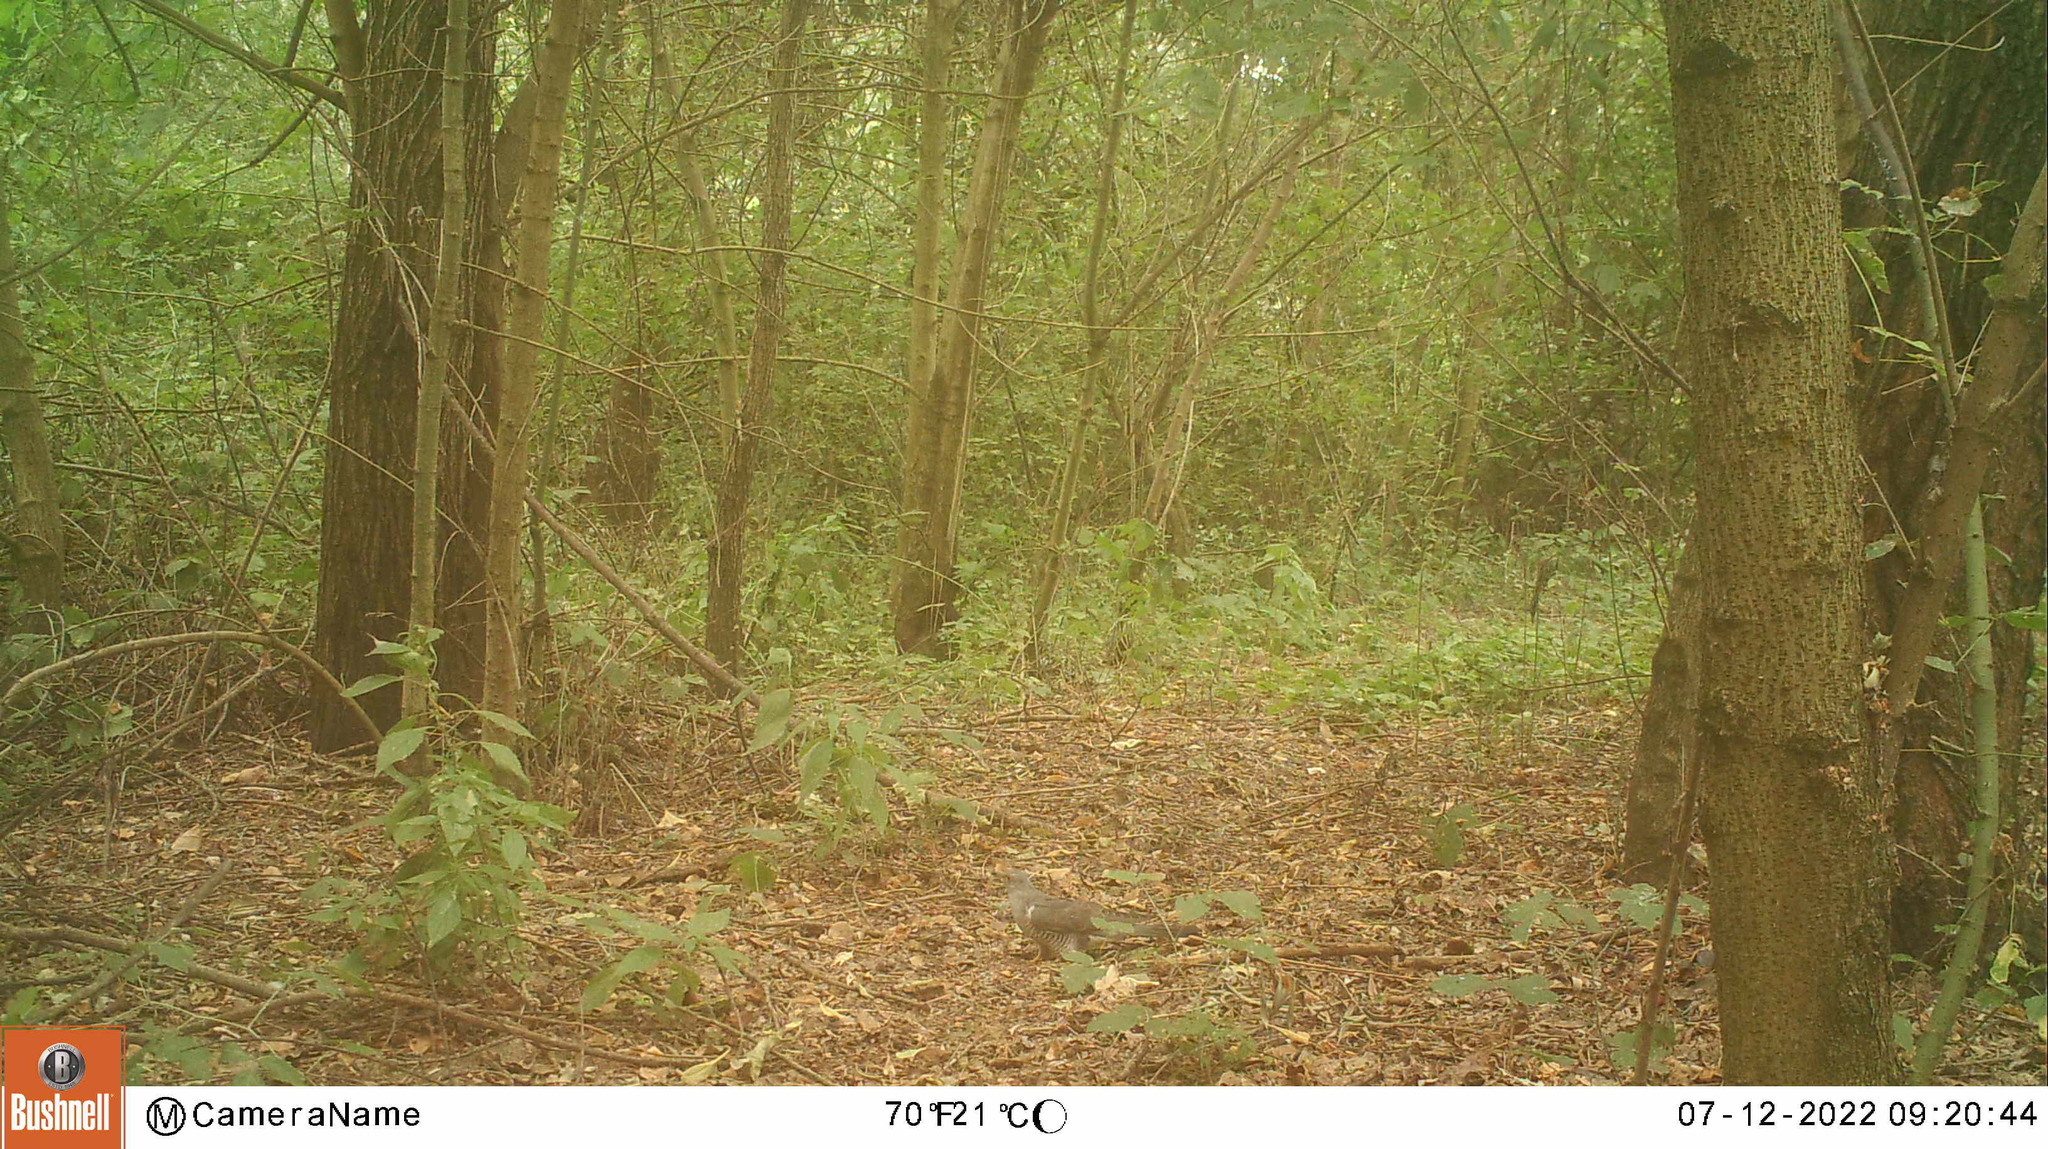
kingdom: Animalia
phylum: Chordata
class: Aves
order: Cuculiformes
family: Cuculidae
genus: Cuculus
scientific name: Cuculus canorus
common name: Common cuckoo
